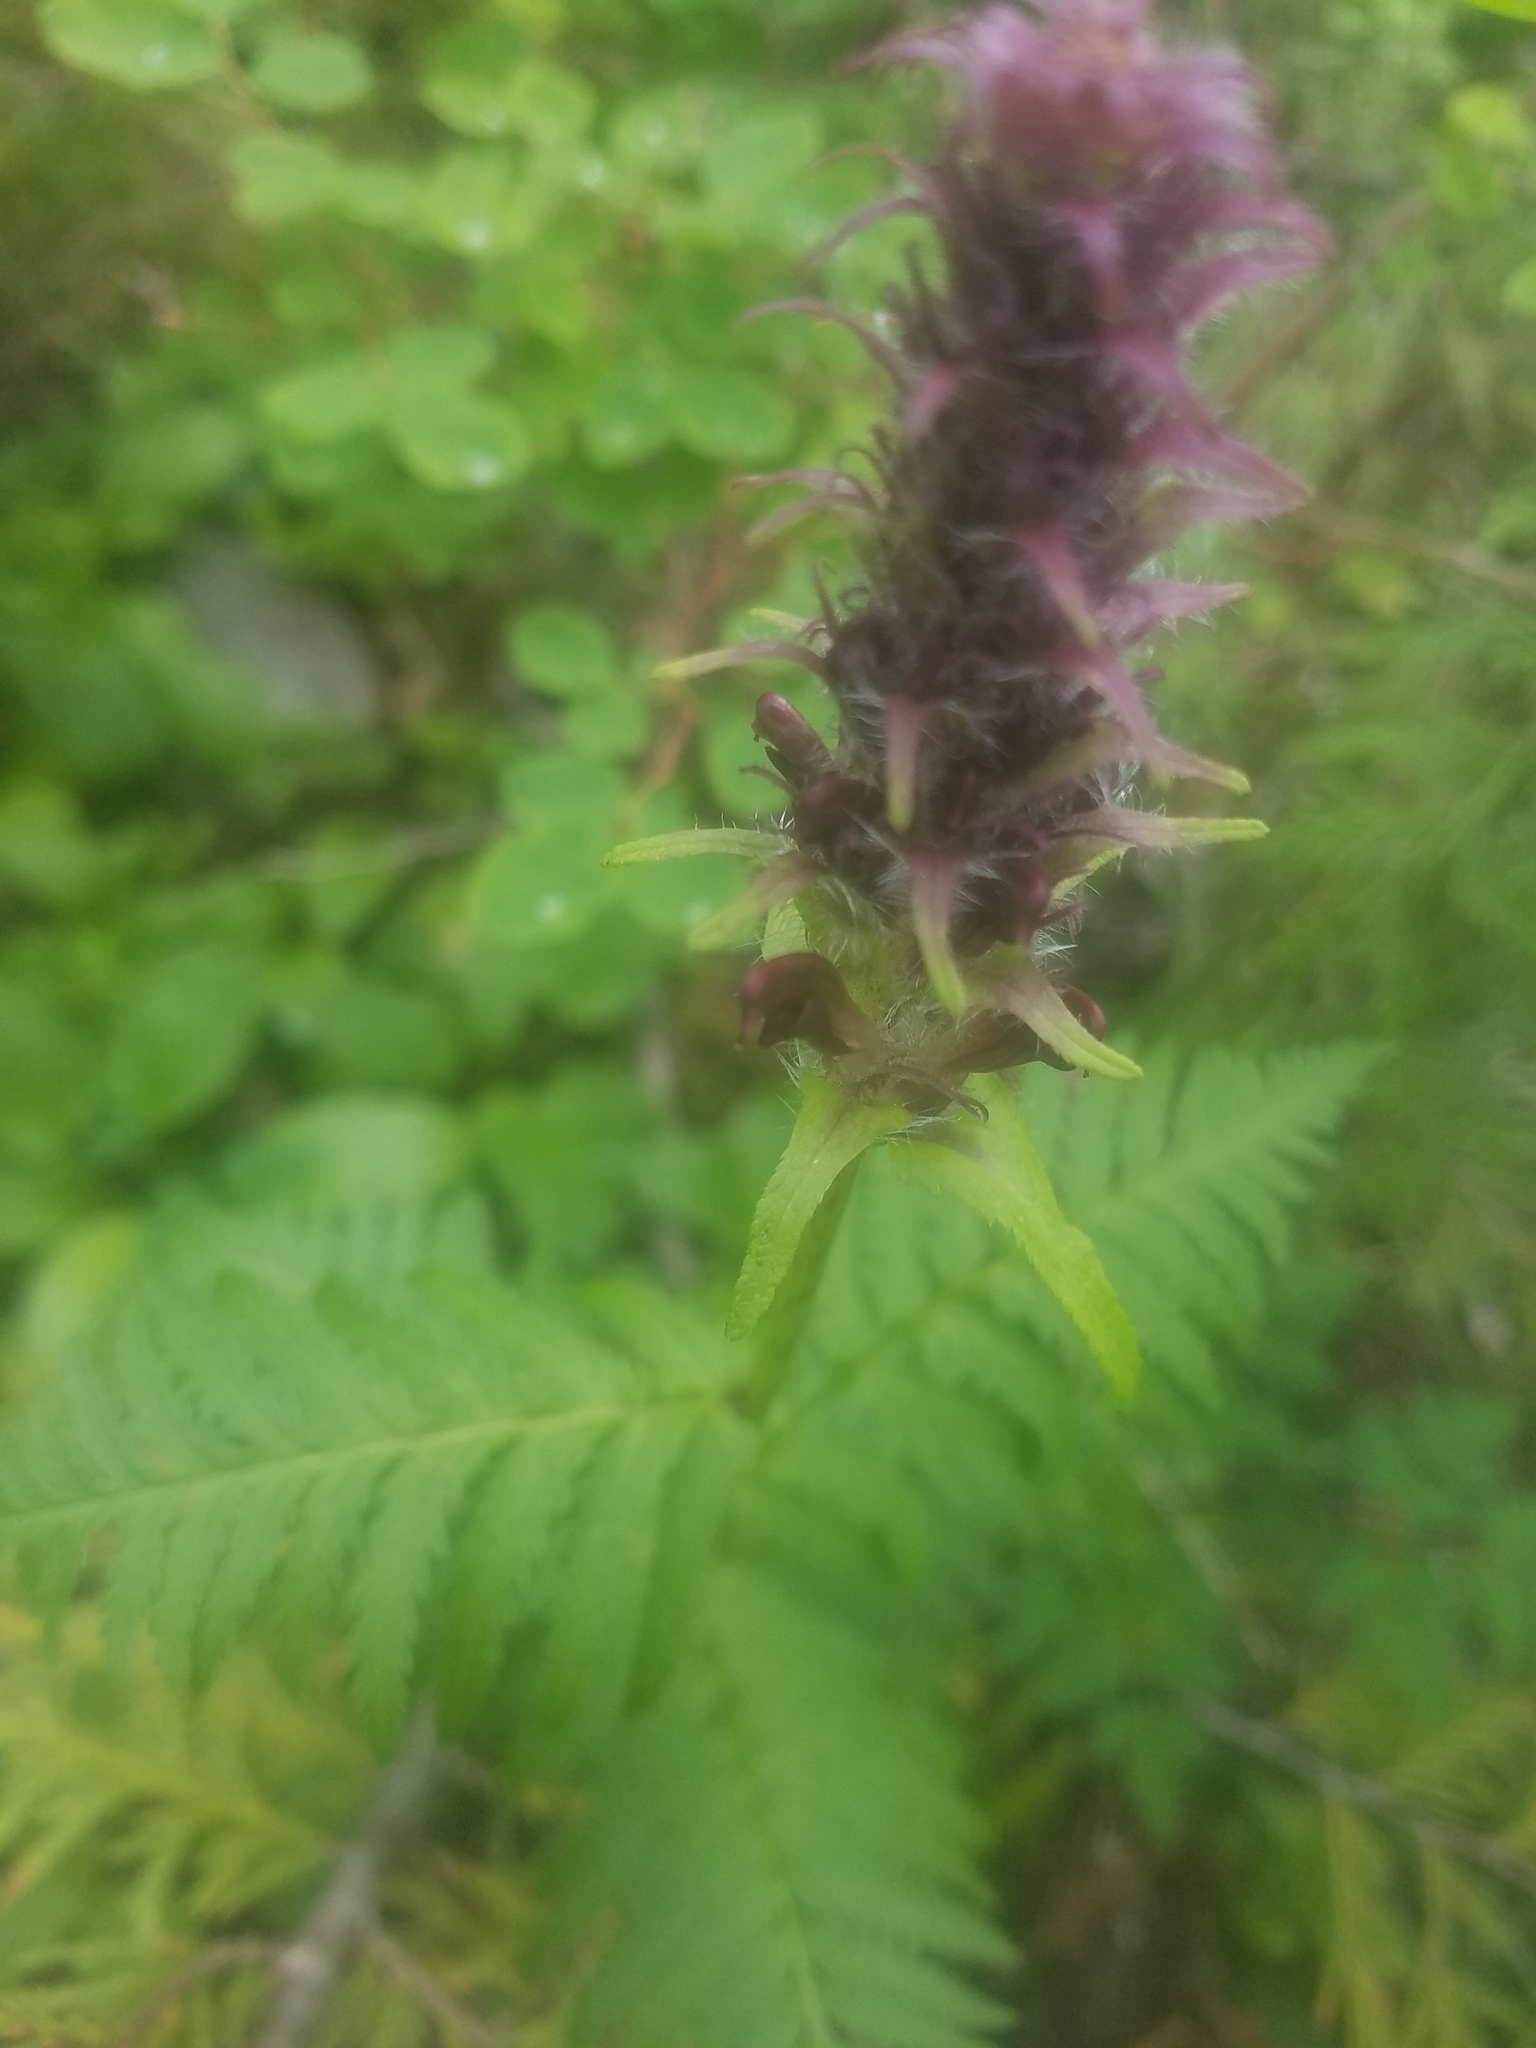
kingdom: Plantae
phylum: Tracheophyta
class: Magnoliopsida
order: Lamiales
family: Orobanchaceae
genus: Pedicularis
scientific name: Pedicularis bracteosa
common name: Bracted lousewort
